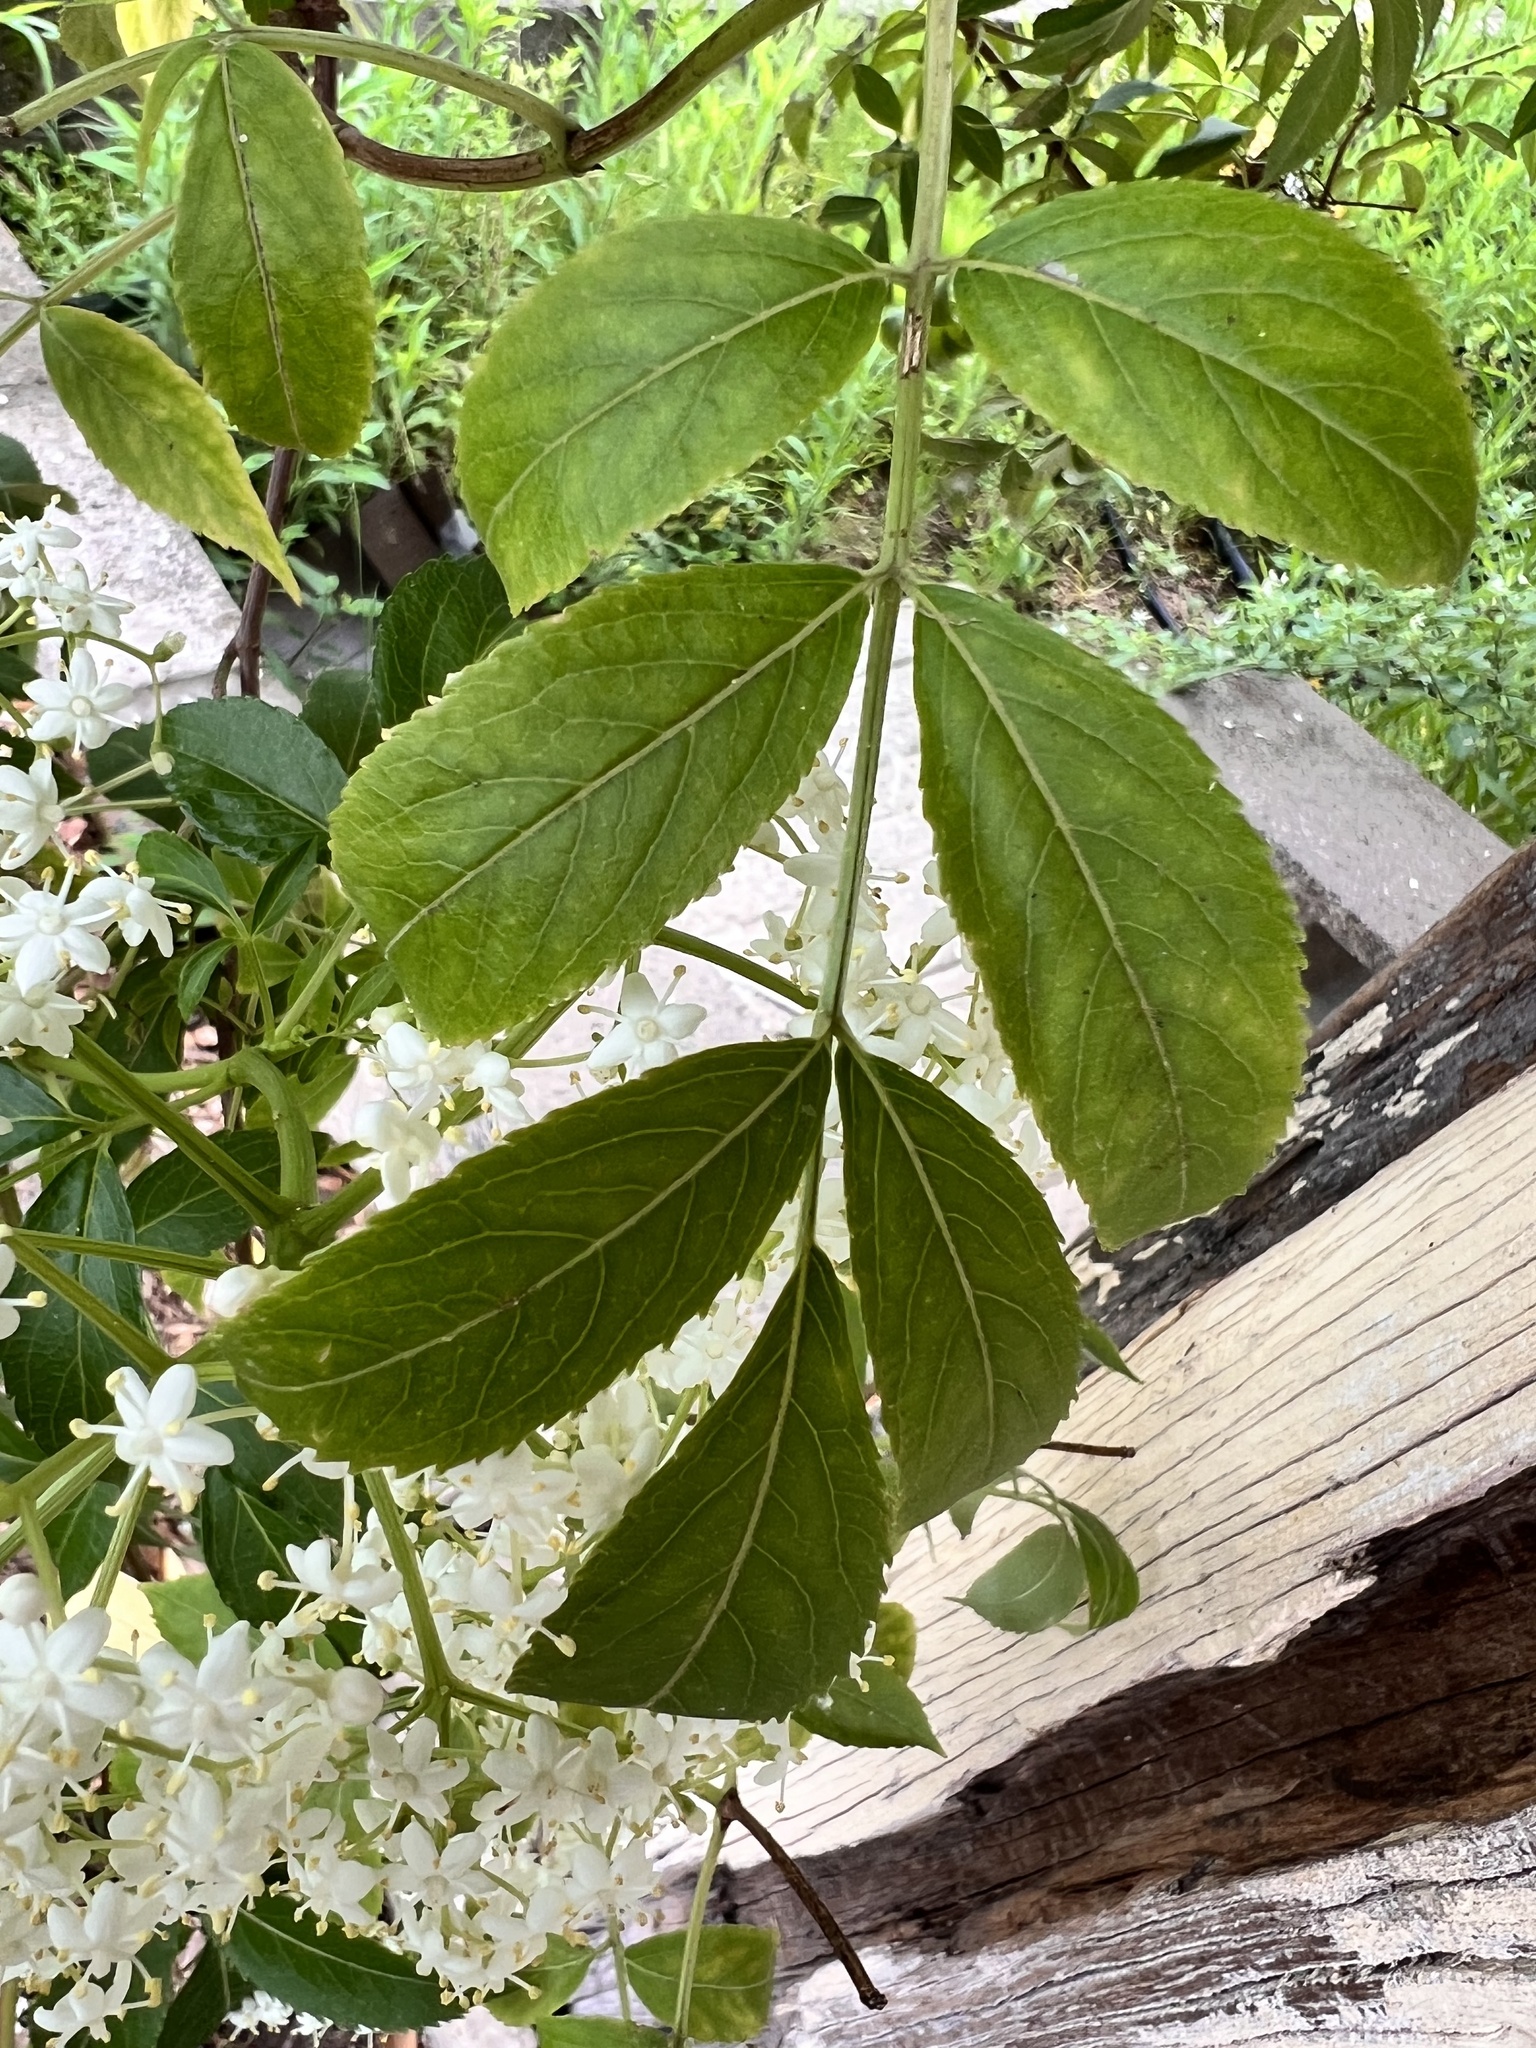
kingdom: Plantae
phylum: Tracheophyta
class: Magnoliopsida
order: Dipsacales
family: Viburnaceae
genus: Sambucus
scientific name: Sambucus nigra
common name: Elder
